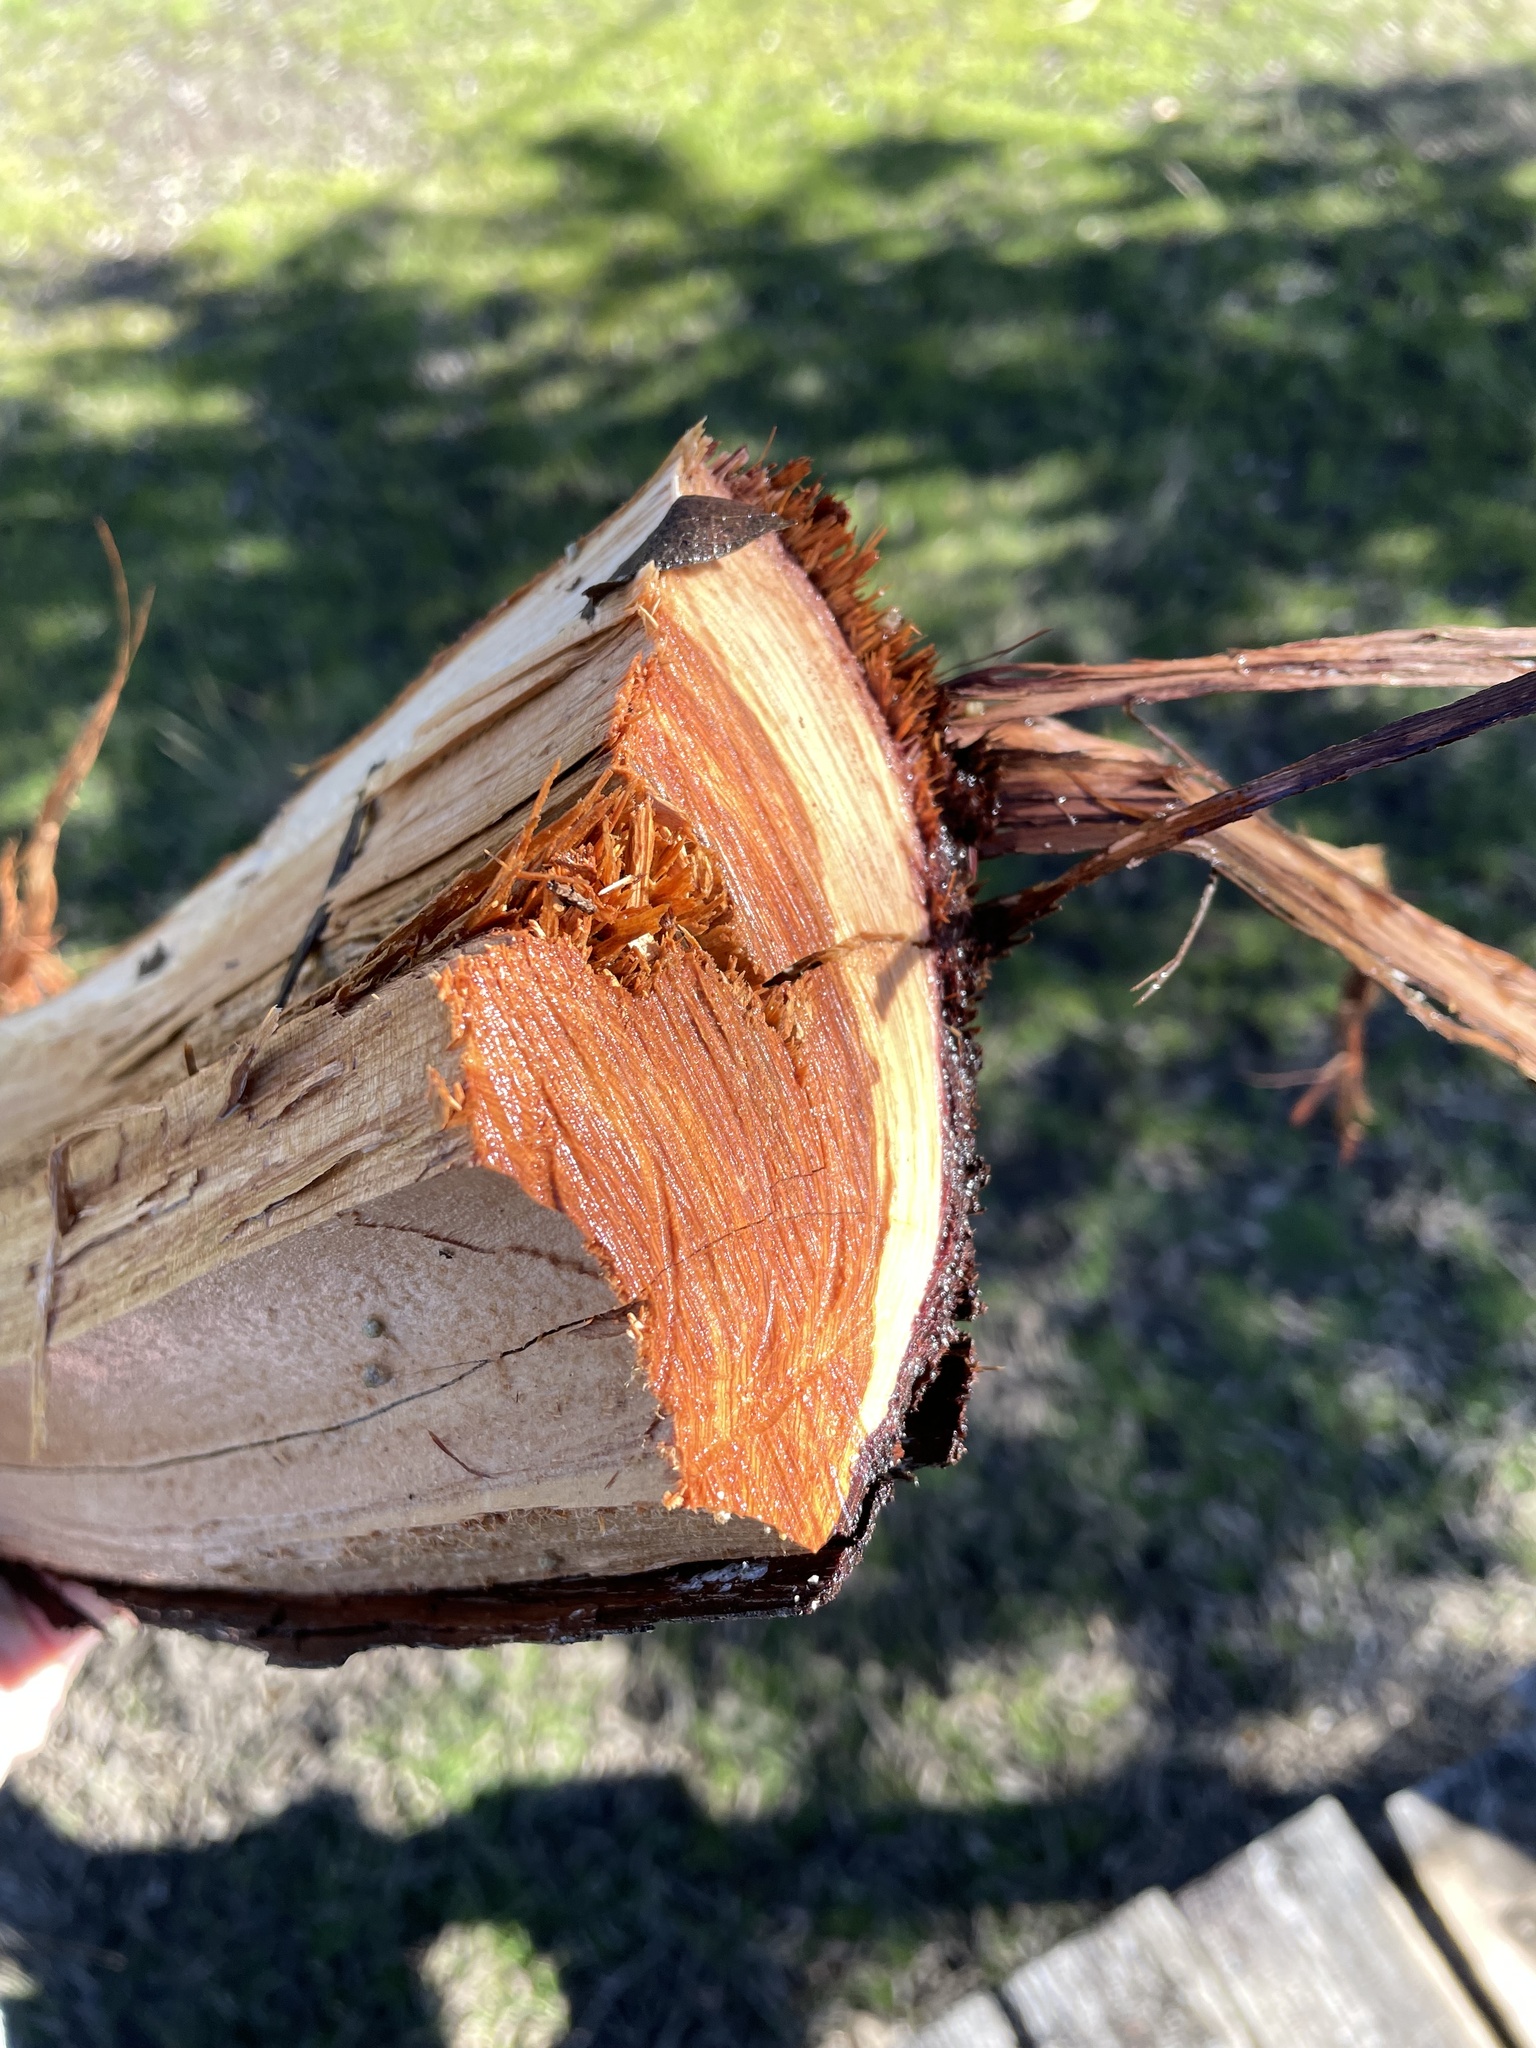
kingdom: Plantae
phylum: Tracheophyta
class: Pinopsida
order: Pinales
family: Cupressaceae
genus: Juniperus
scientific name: Juniperus ashei
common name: Mexican juniper
